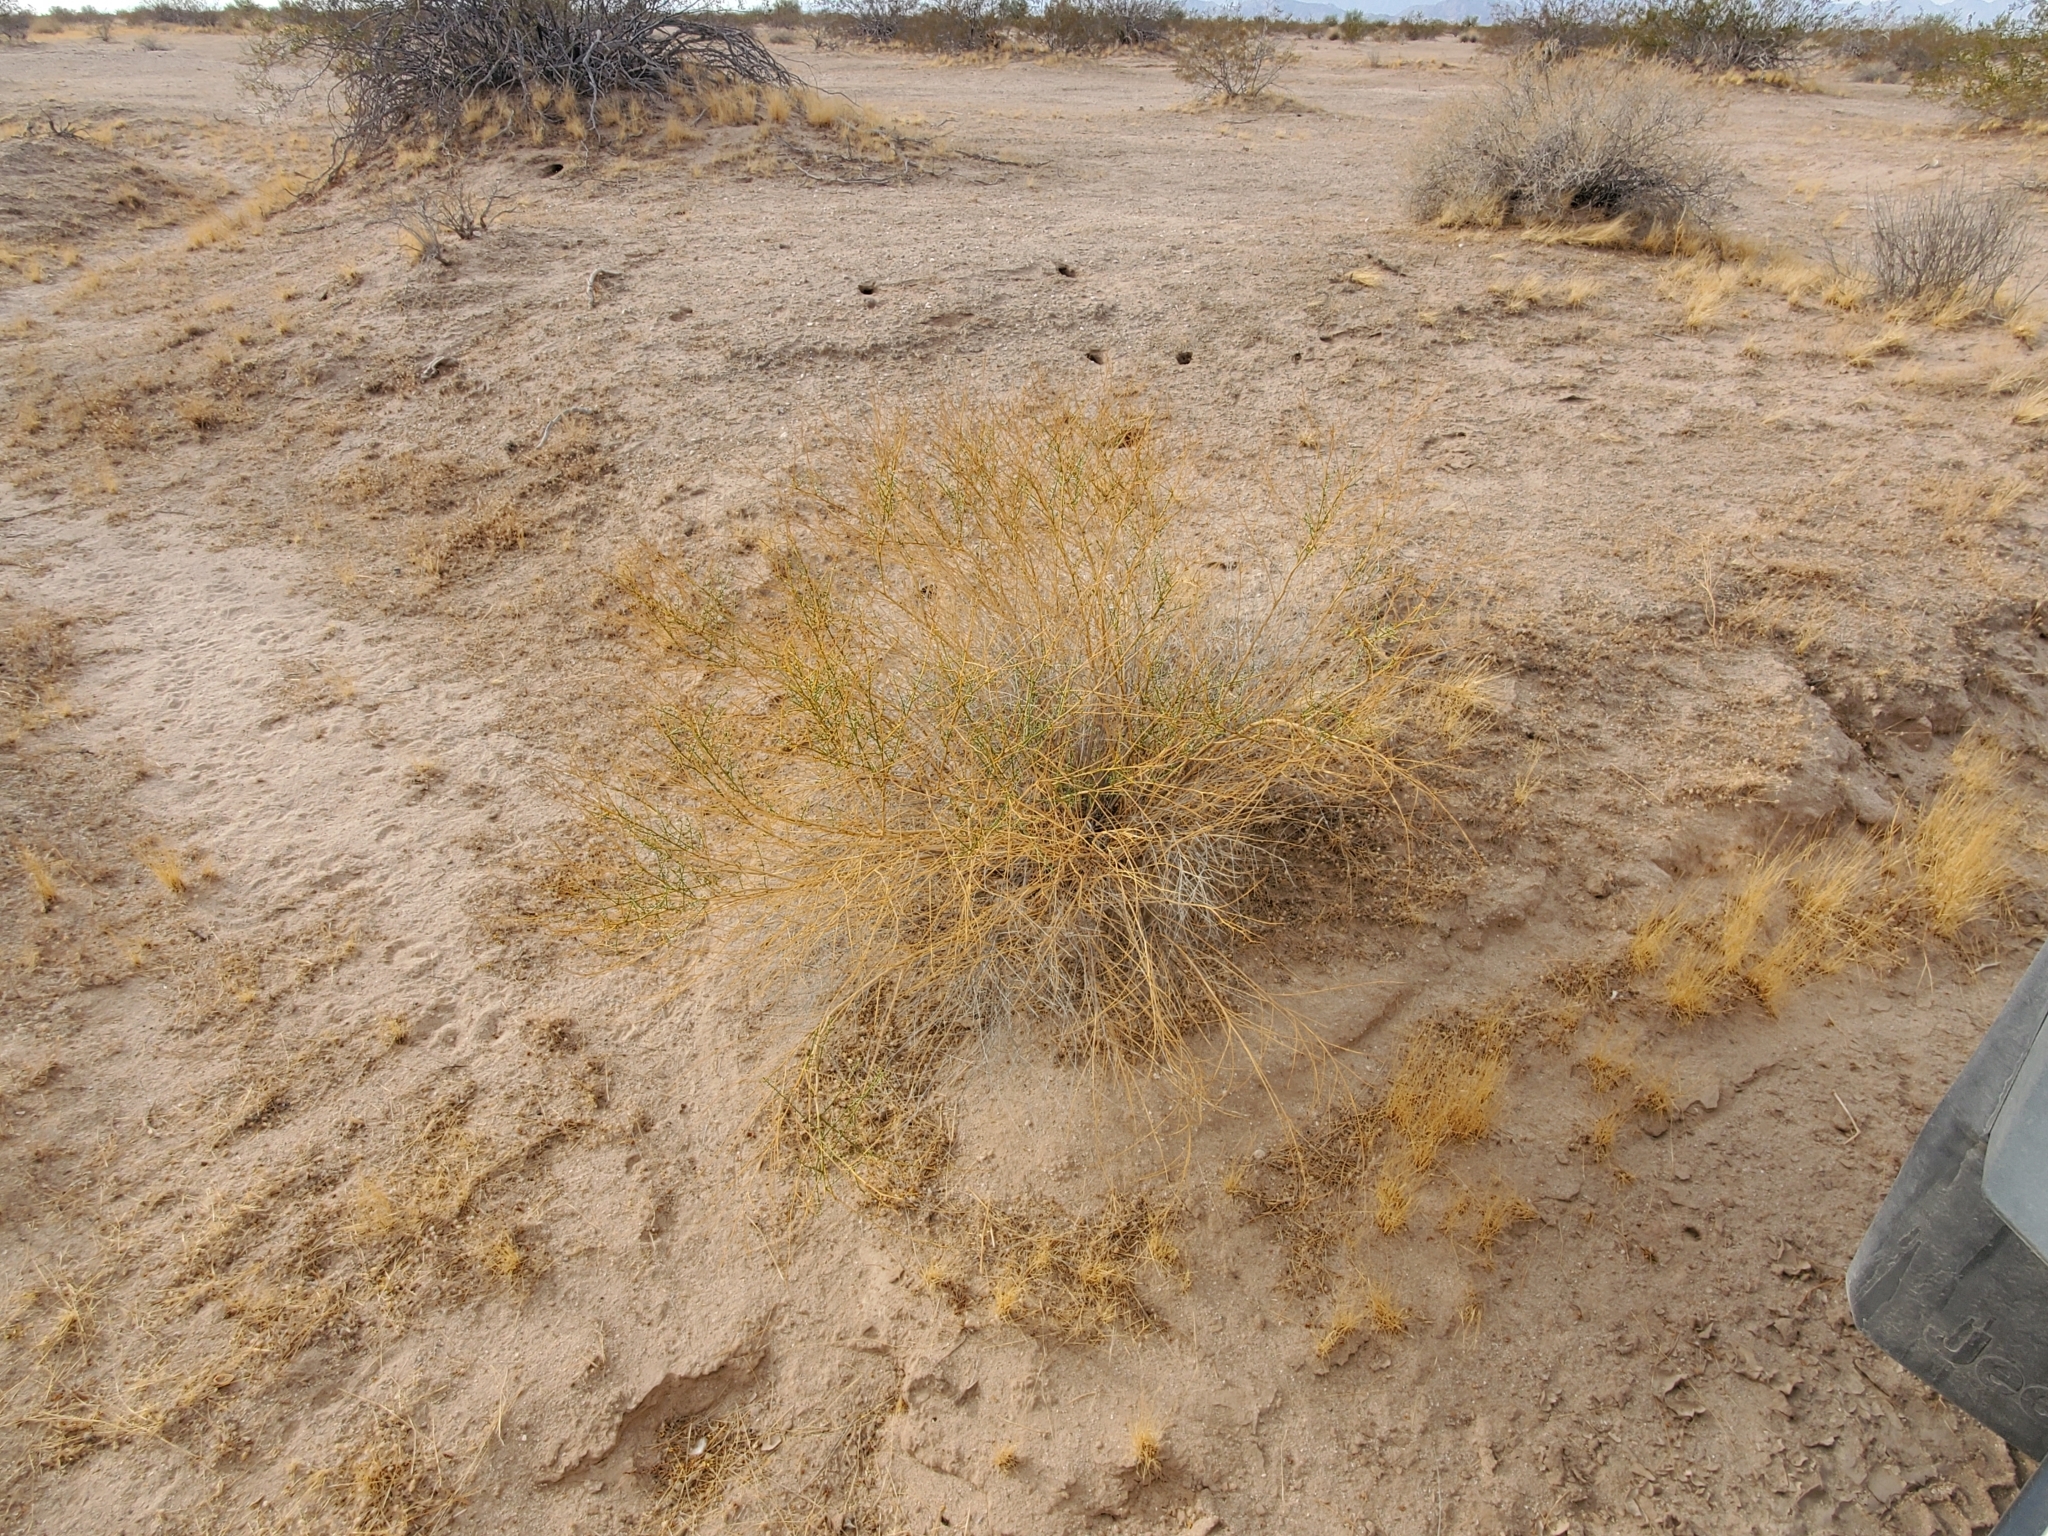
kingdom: Plantae
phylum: Tracheophyta
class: Magnoliopsida
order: Asterales
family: Asteraceae
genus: Ambrosia
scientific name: Ambrosia salsola
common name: Burrobrush
